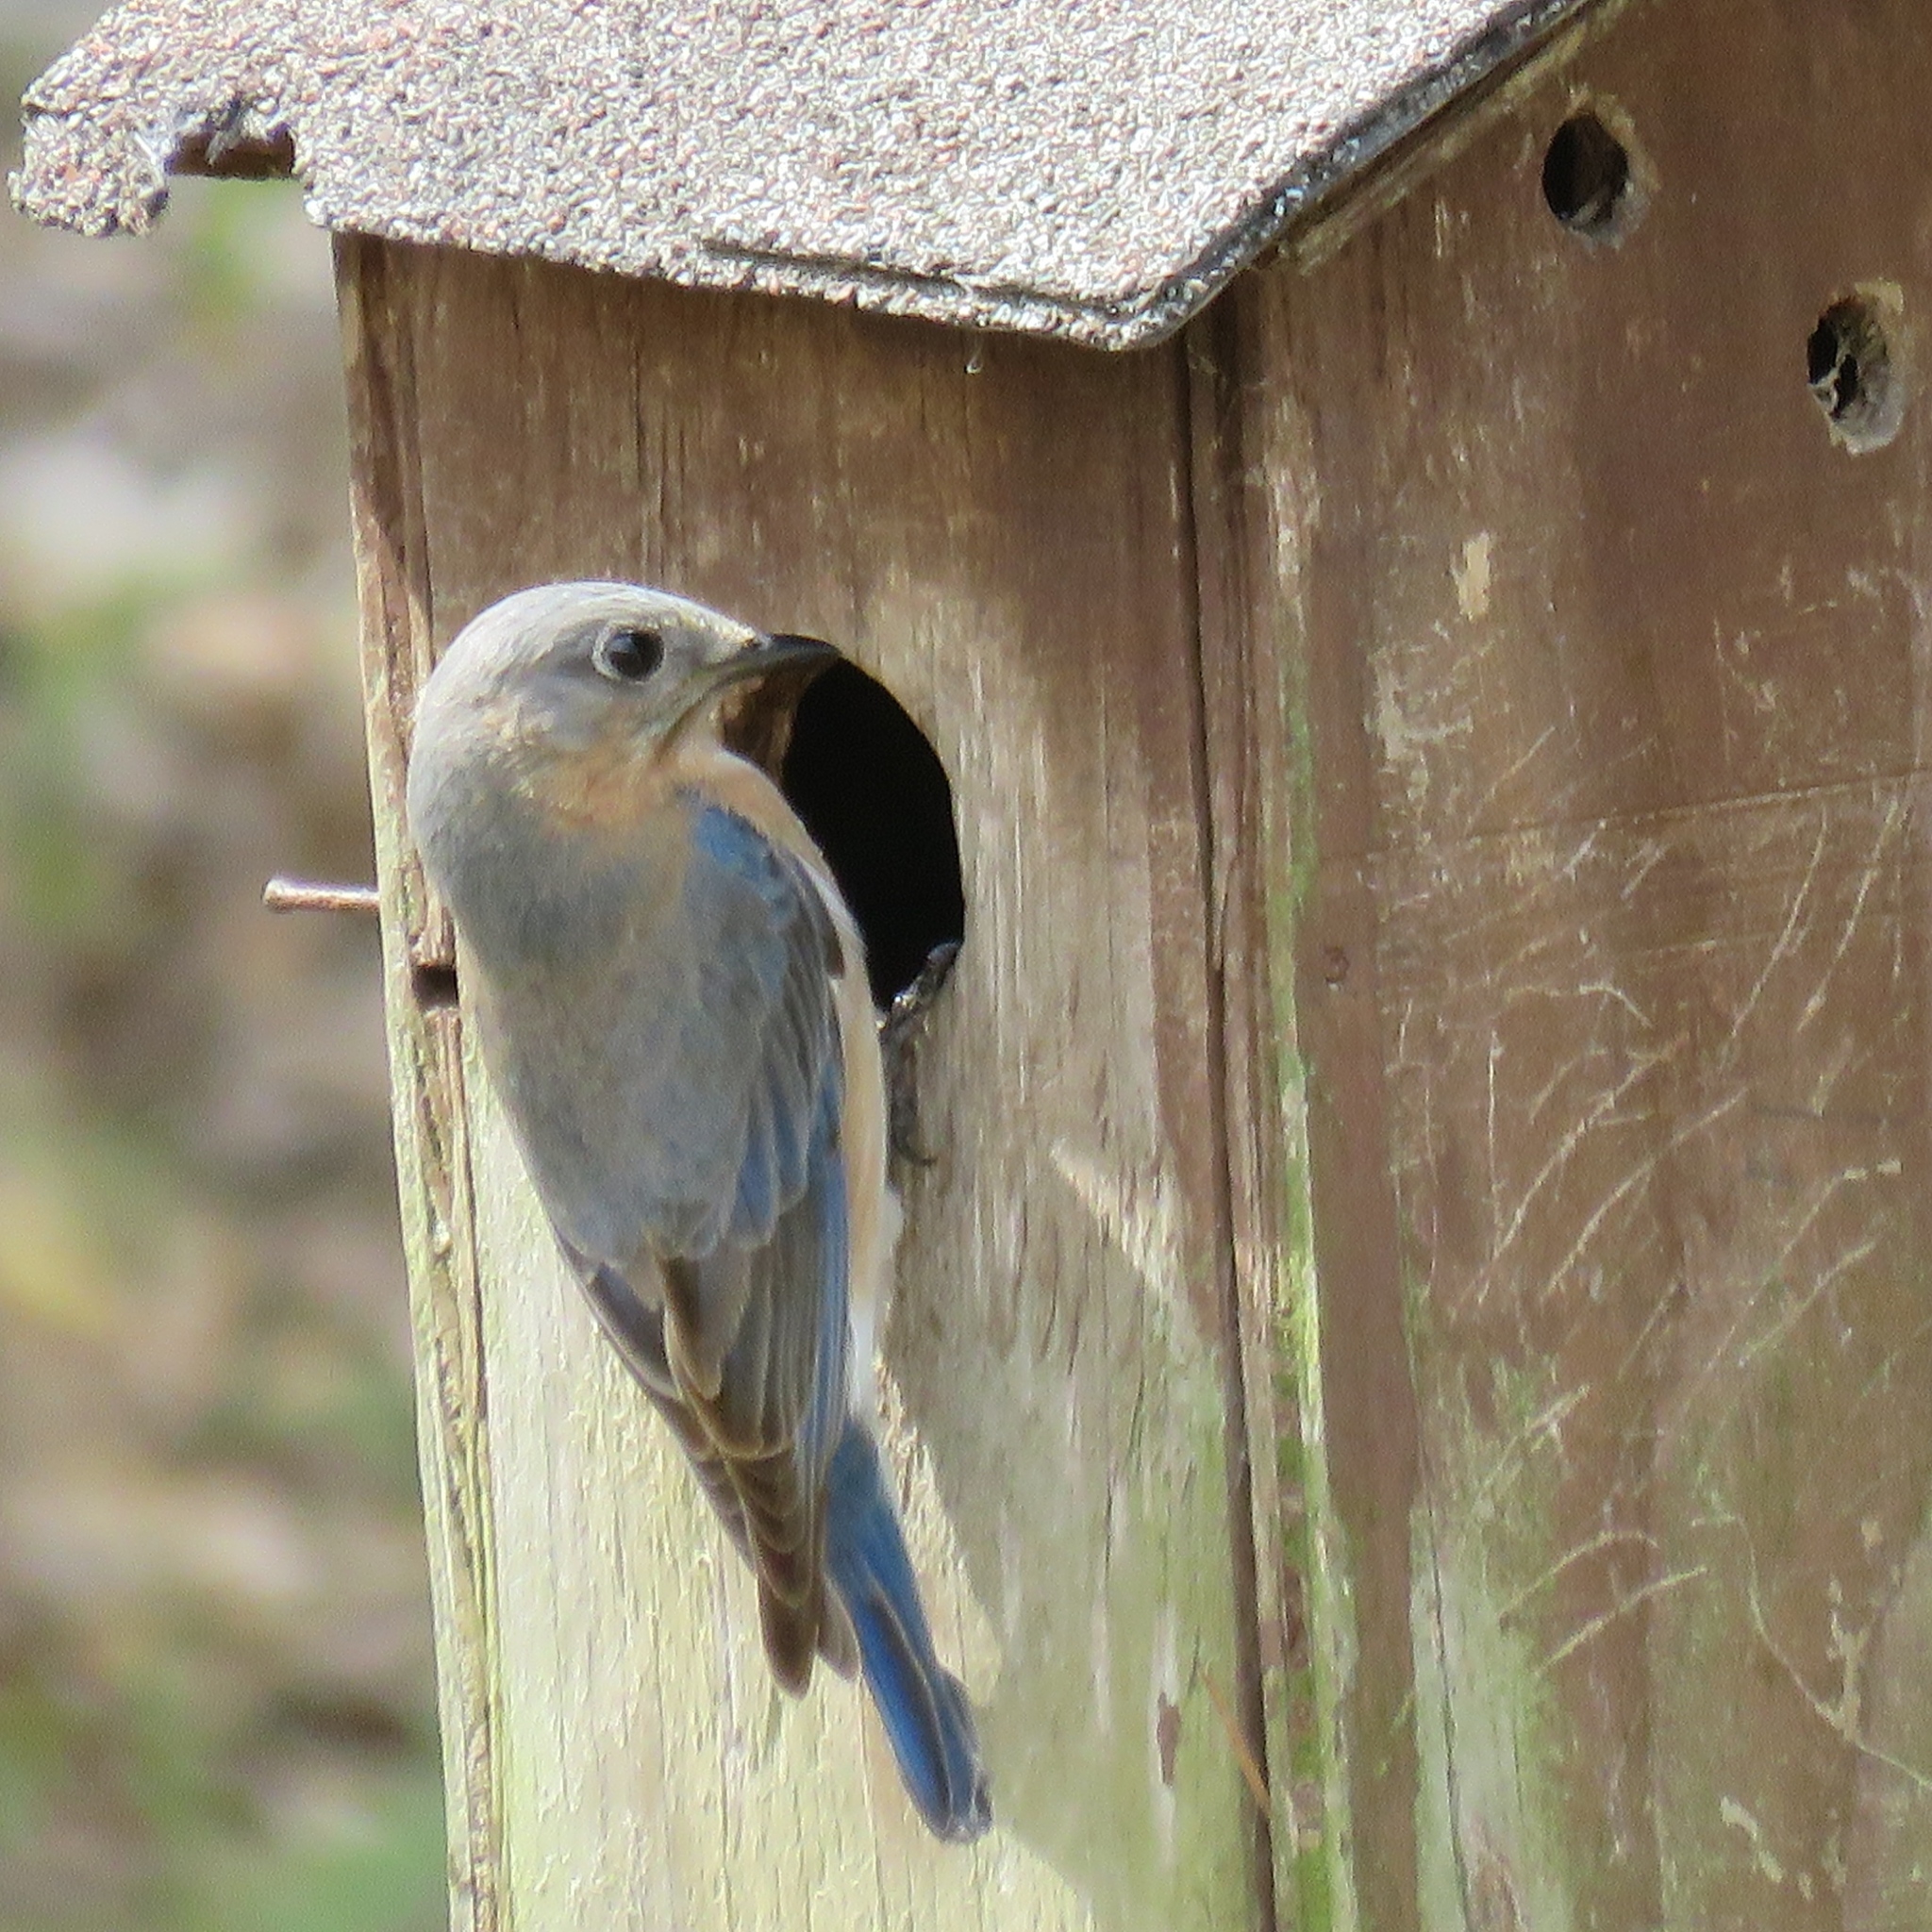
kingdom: Animalia
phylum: Chordata
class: Aves
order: Passeriformes
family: Turdidae
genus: Sialia
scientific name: Sialia sialis
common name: Eastern bluebird
